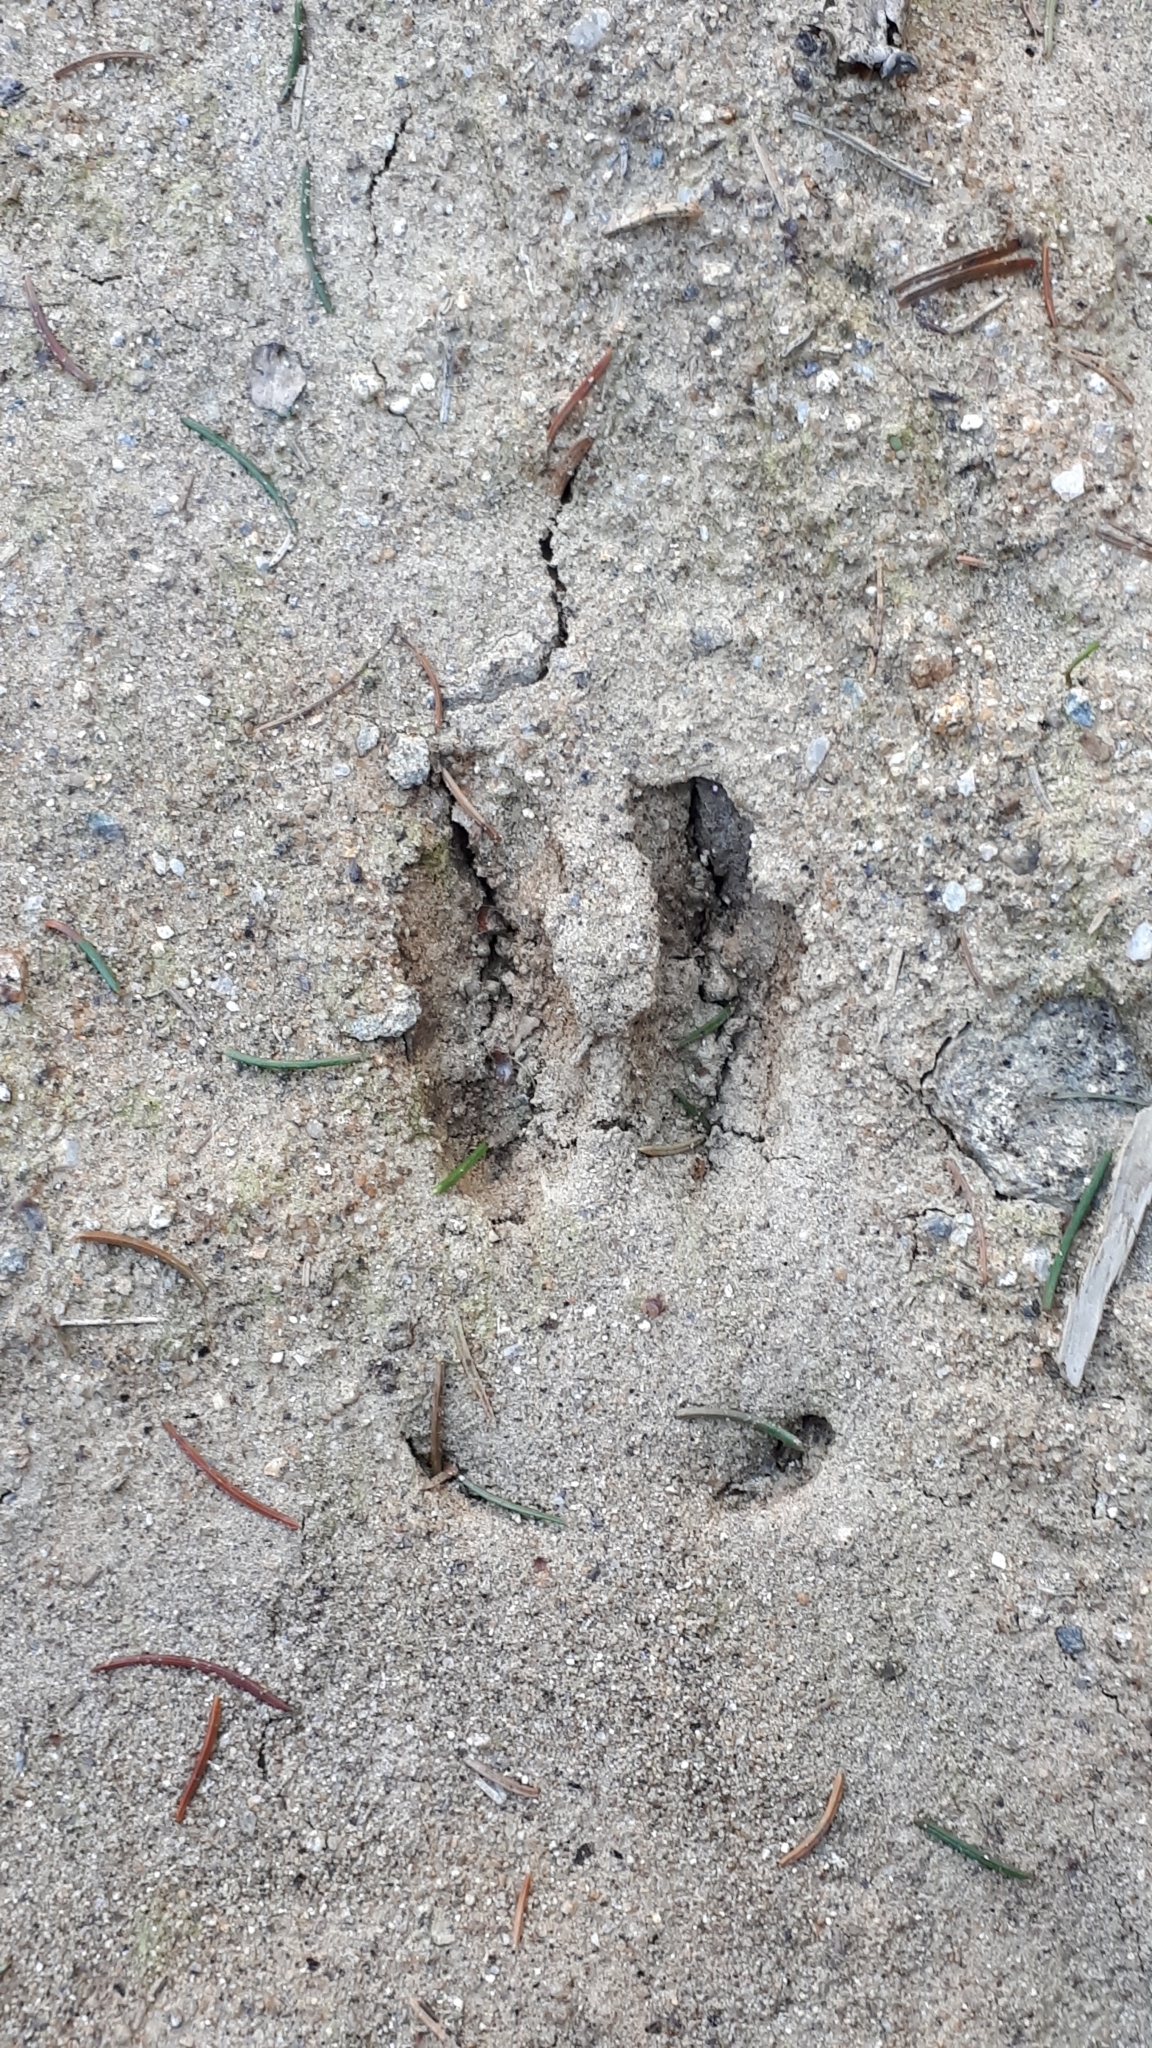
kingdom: Animalia
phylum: Chordata
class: Mammalia
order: Artiodactyla
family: Suidae
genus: Sus
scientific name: Sus scrofa
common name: Wild boar
